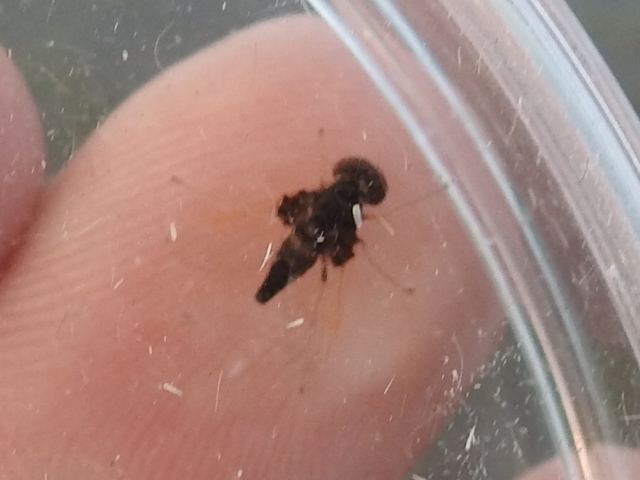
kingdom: Animalia
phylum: Arthropoda
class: Insecta
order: Diptera
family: Rhagionidae
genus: Chrysopilus
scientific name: Chrysopilus basilaris
